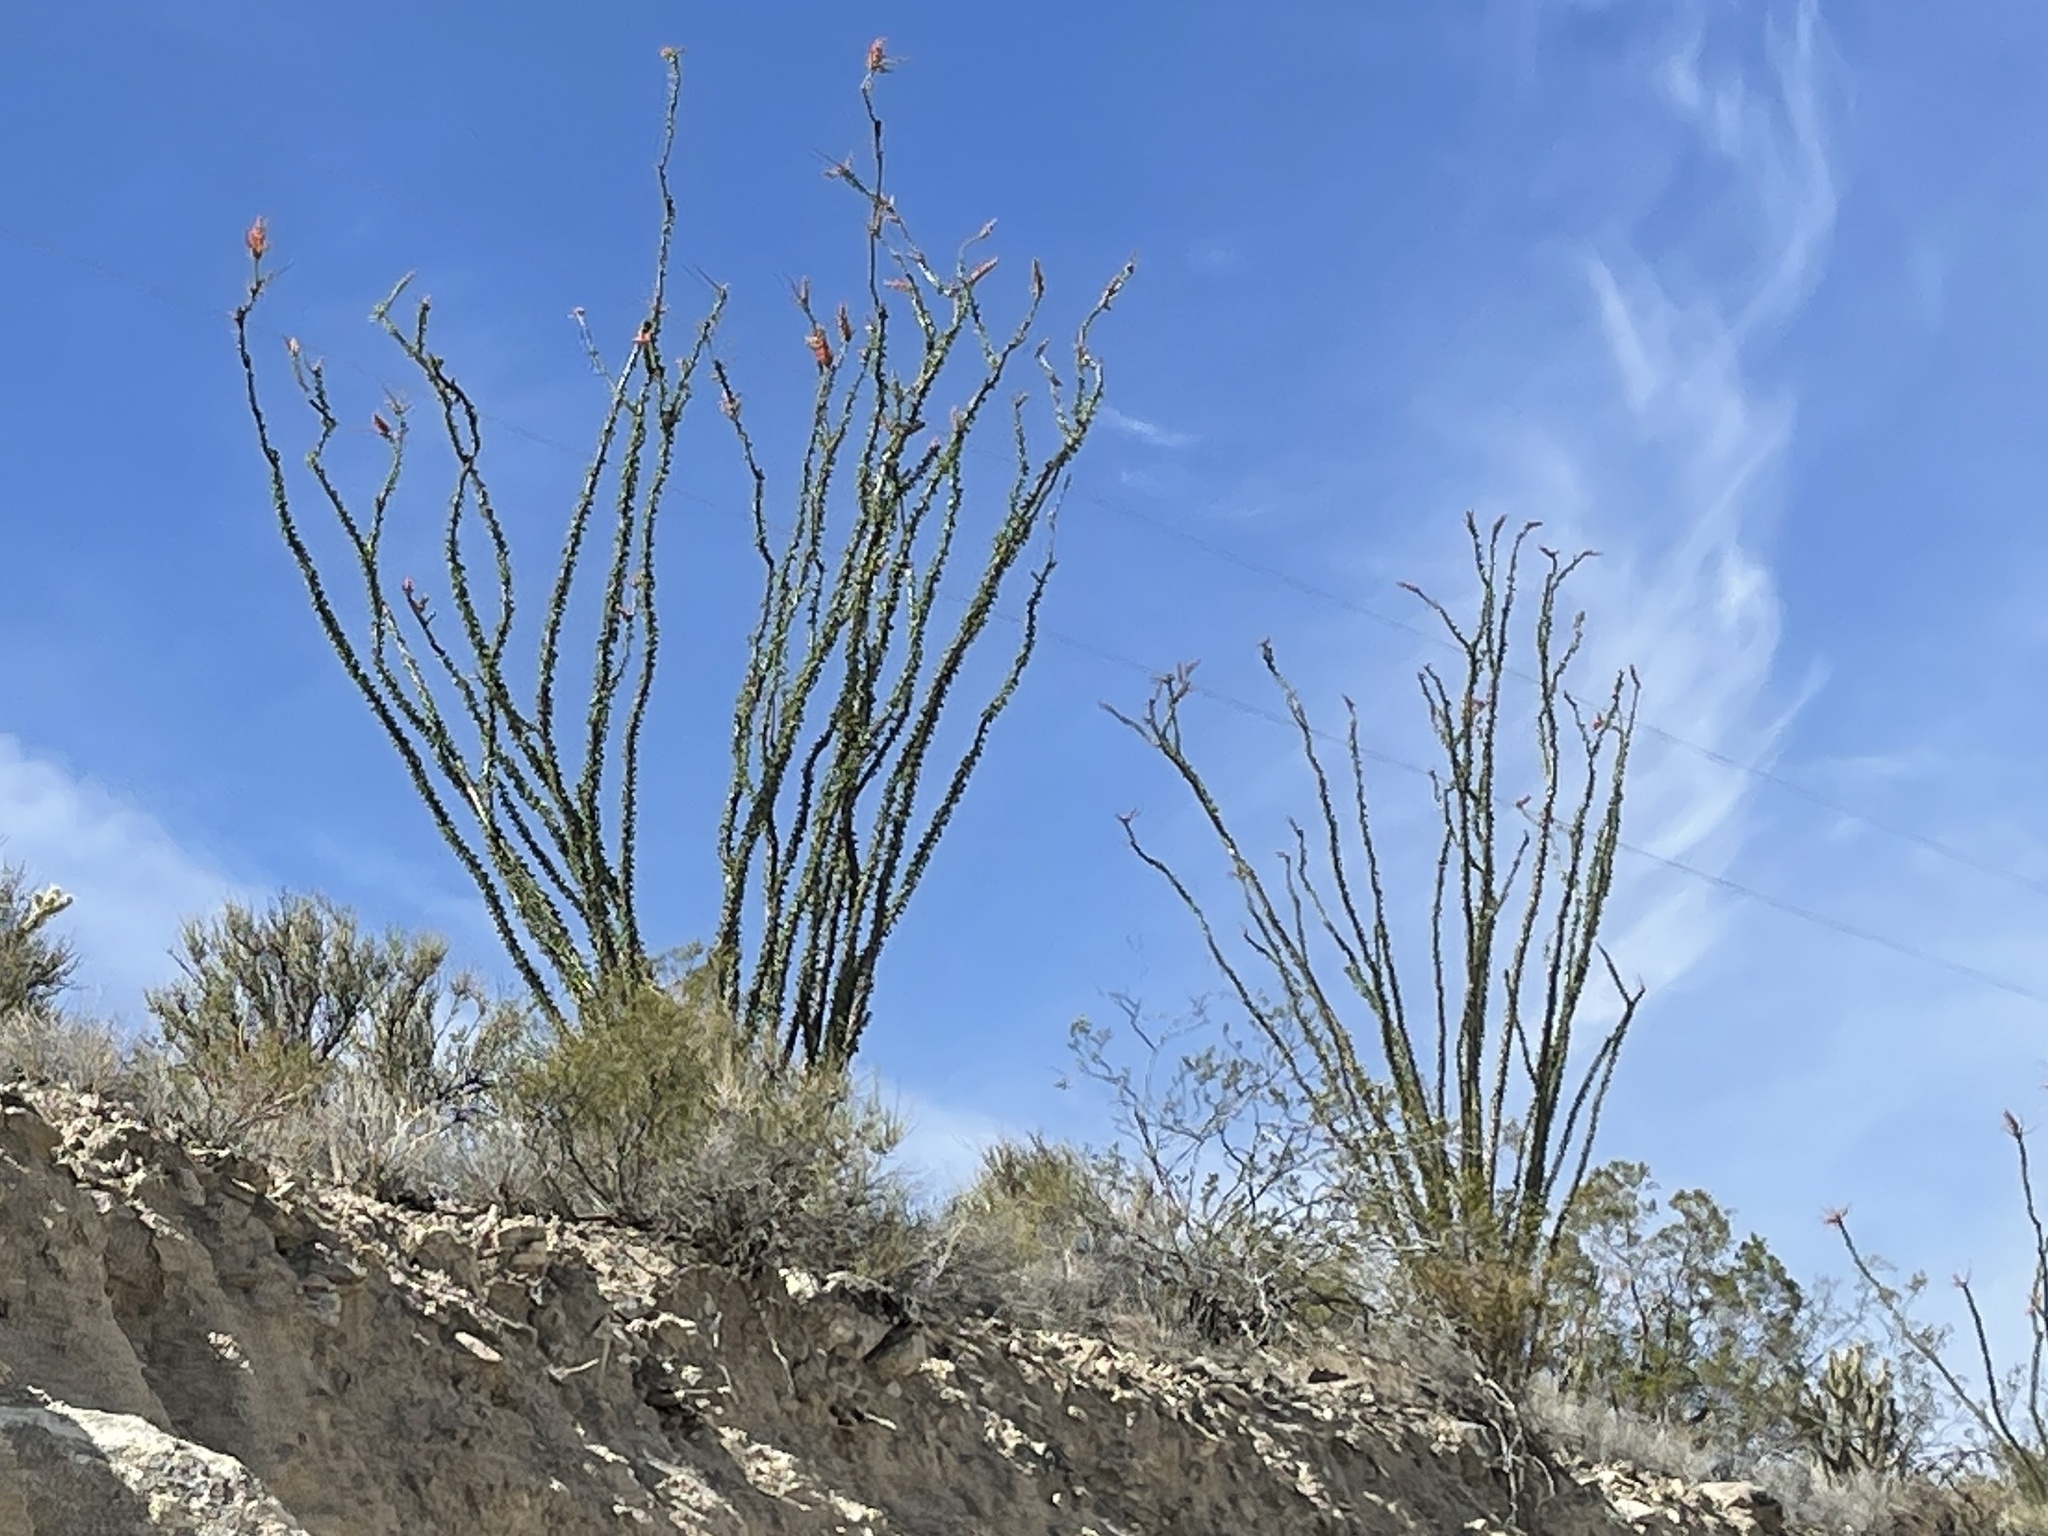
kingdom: Plantae
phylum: Tracheophyta
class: Magnoliopsida
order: Ericales
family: Fouquieriaceae
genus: Fouquieria
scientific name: Fouquieria splendens
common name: Vine-cactus
